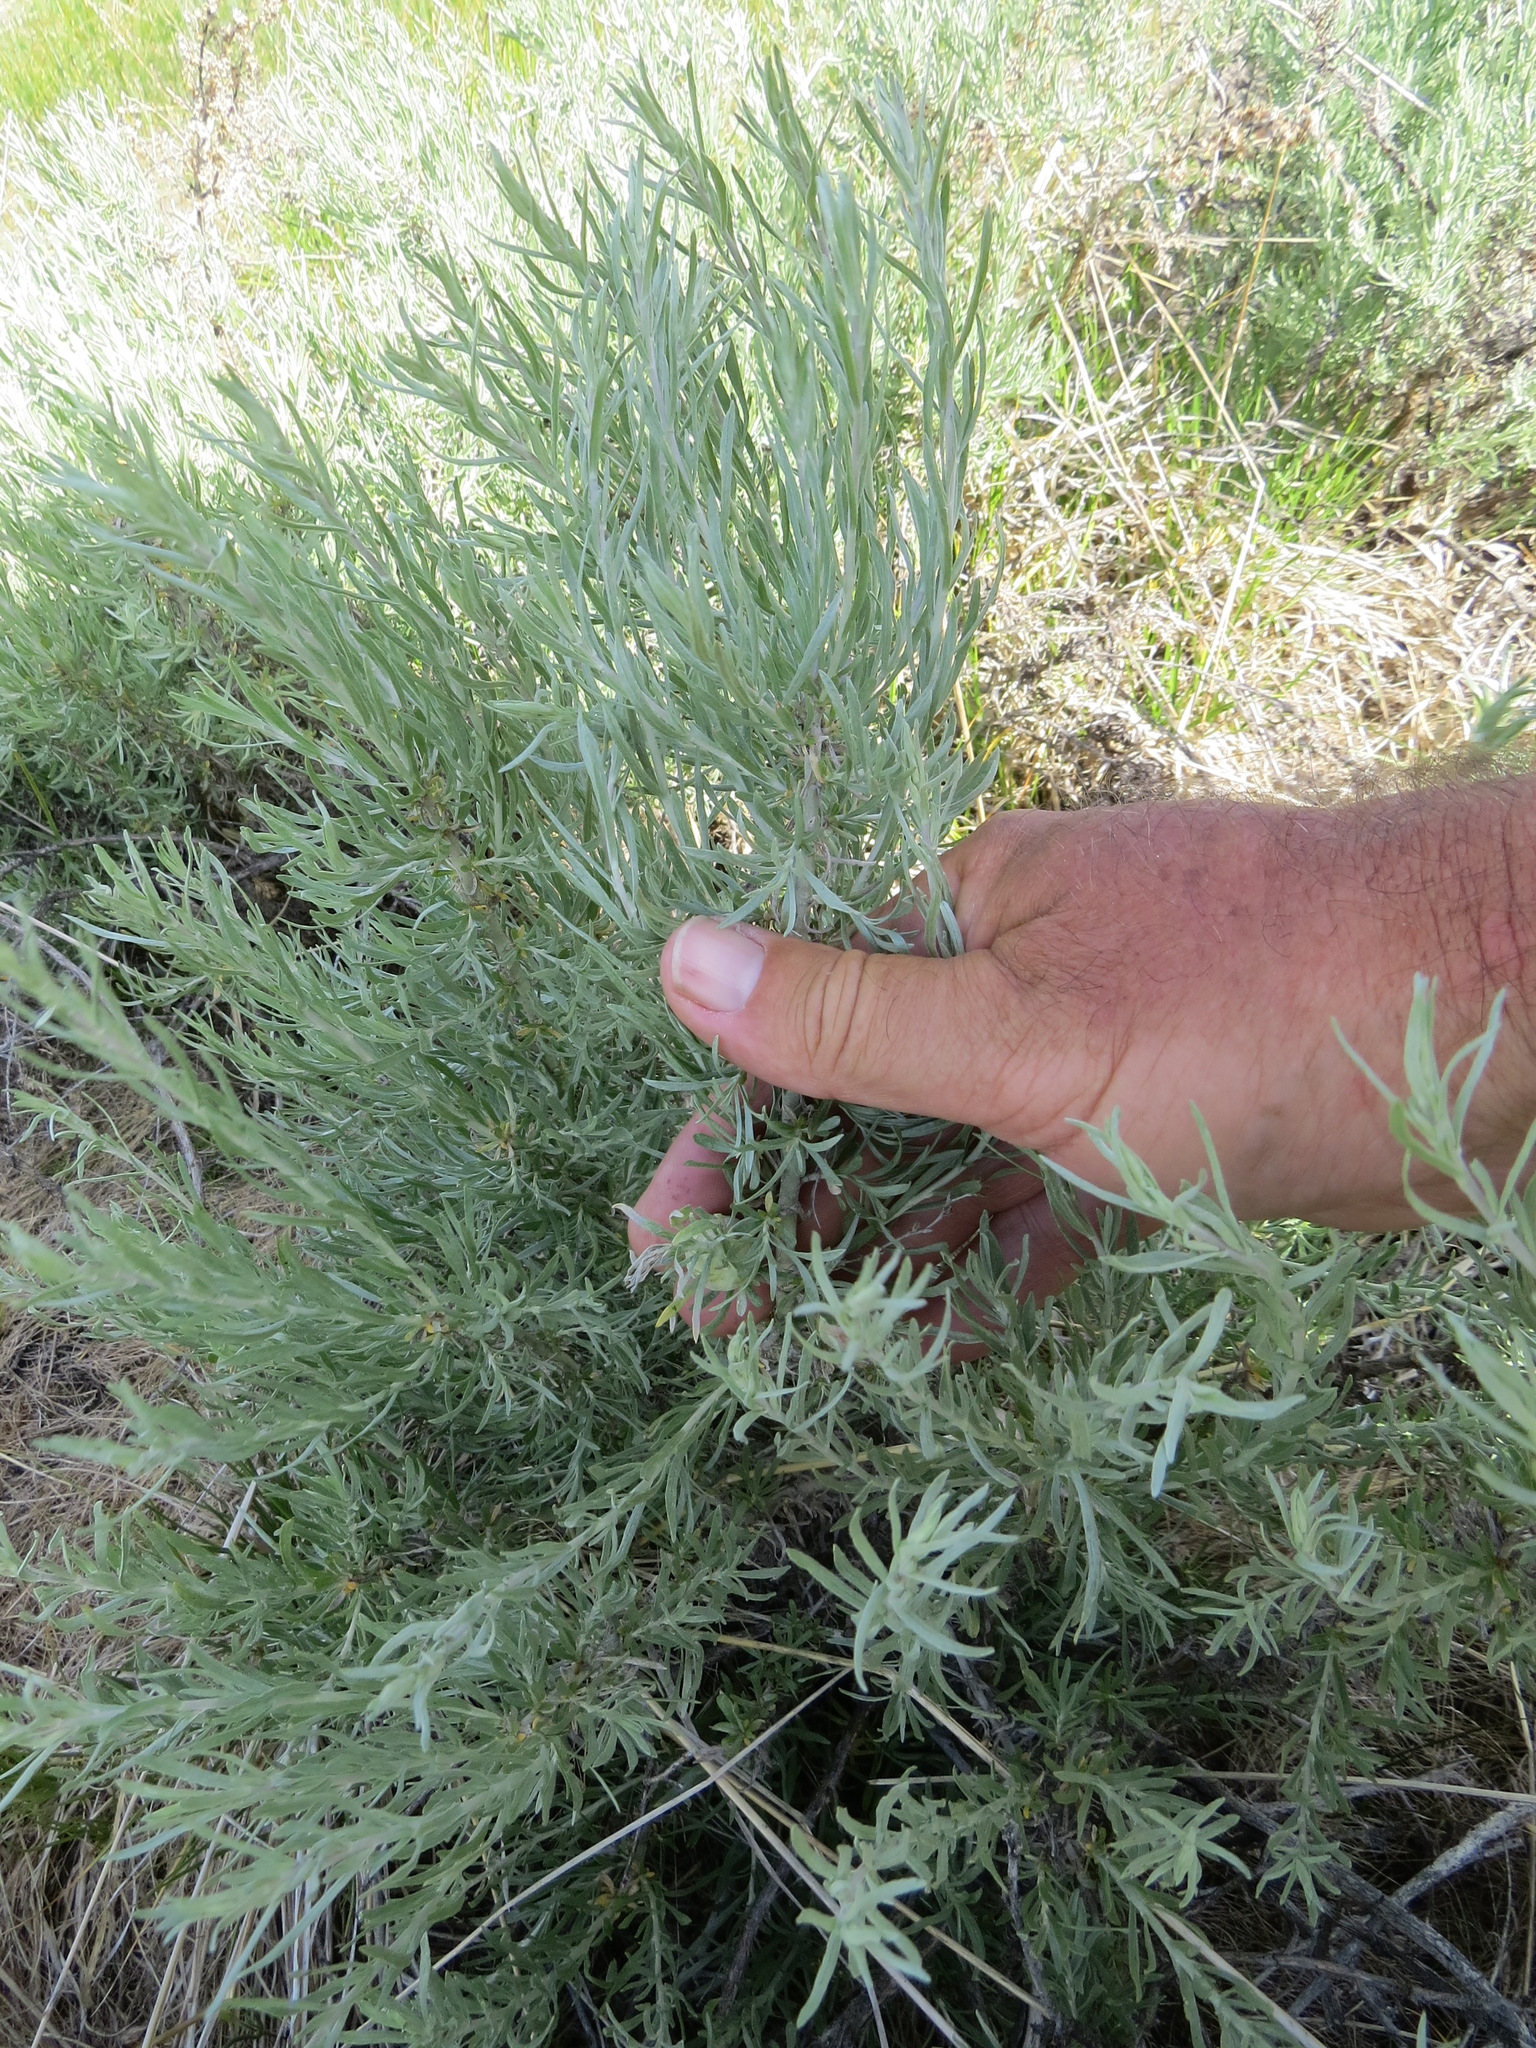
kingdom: Plantae
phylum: Tracheophyta
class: Magnoliopsida
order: Asterales
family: Asteraceae
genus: Artemisia
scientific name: Artemisia cana
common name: Silver sagebrush
